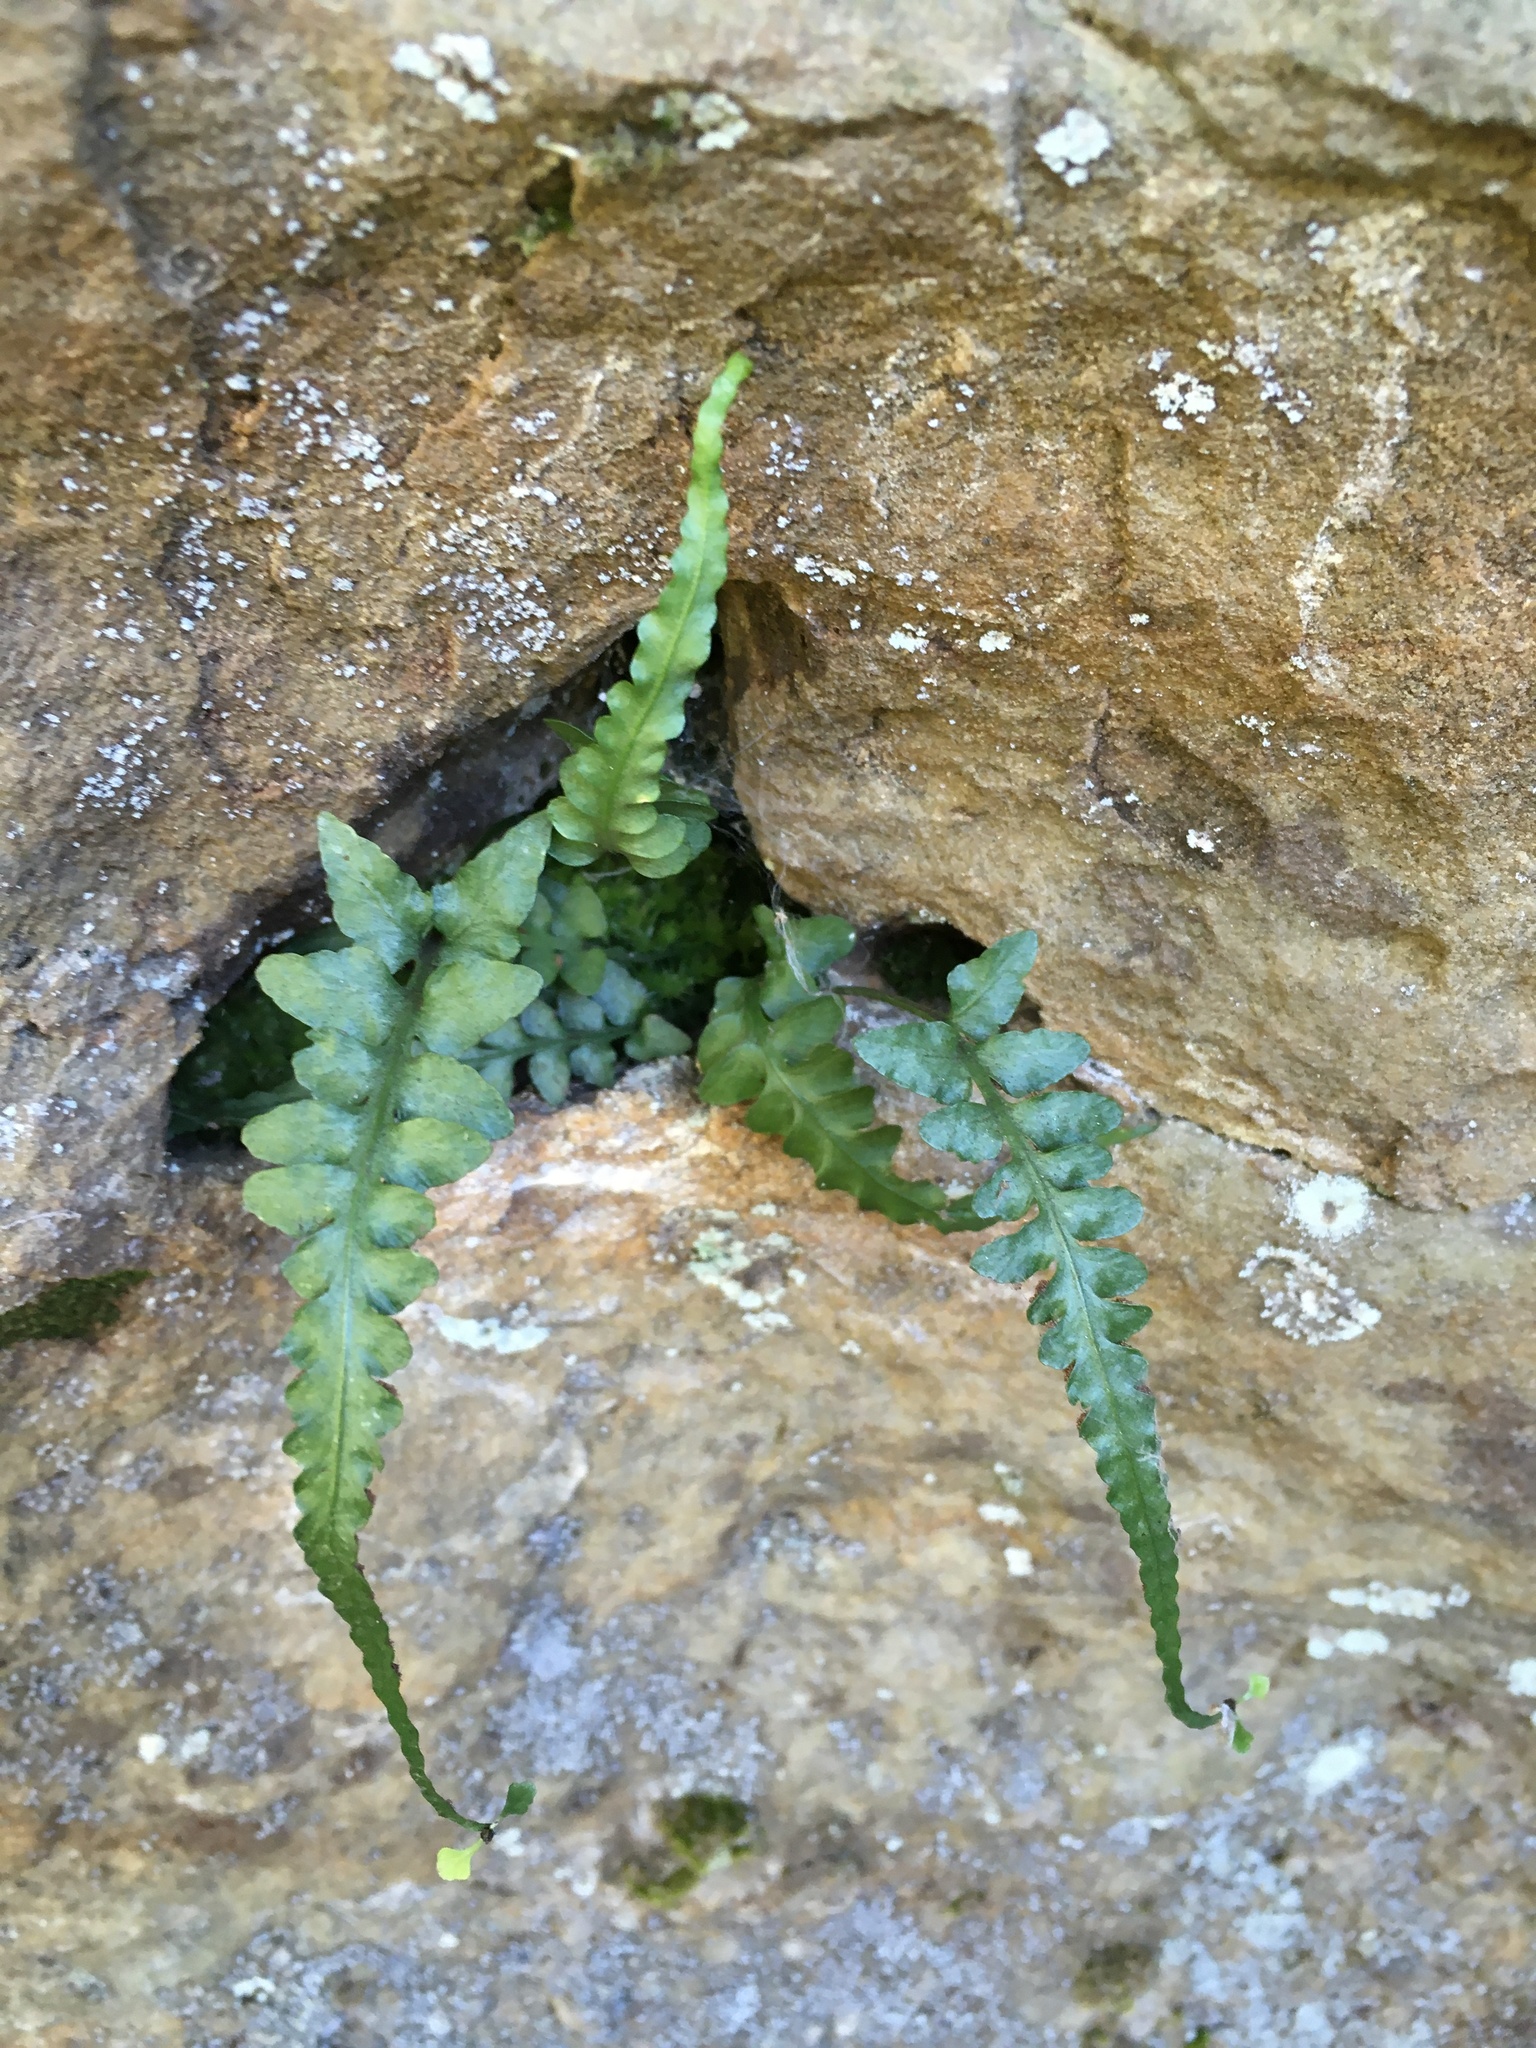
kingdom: Plantae
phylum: Tracheophyta
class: Polypodiopsida
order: Polypodiales
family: Aspleniaceae
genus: Asplenium
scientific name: Asplenium pinnatifidum
